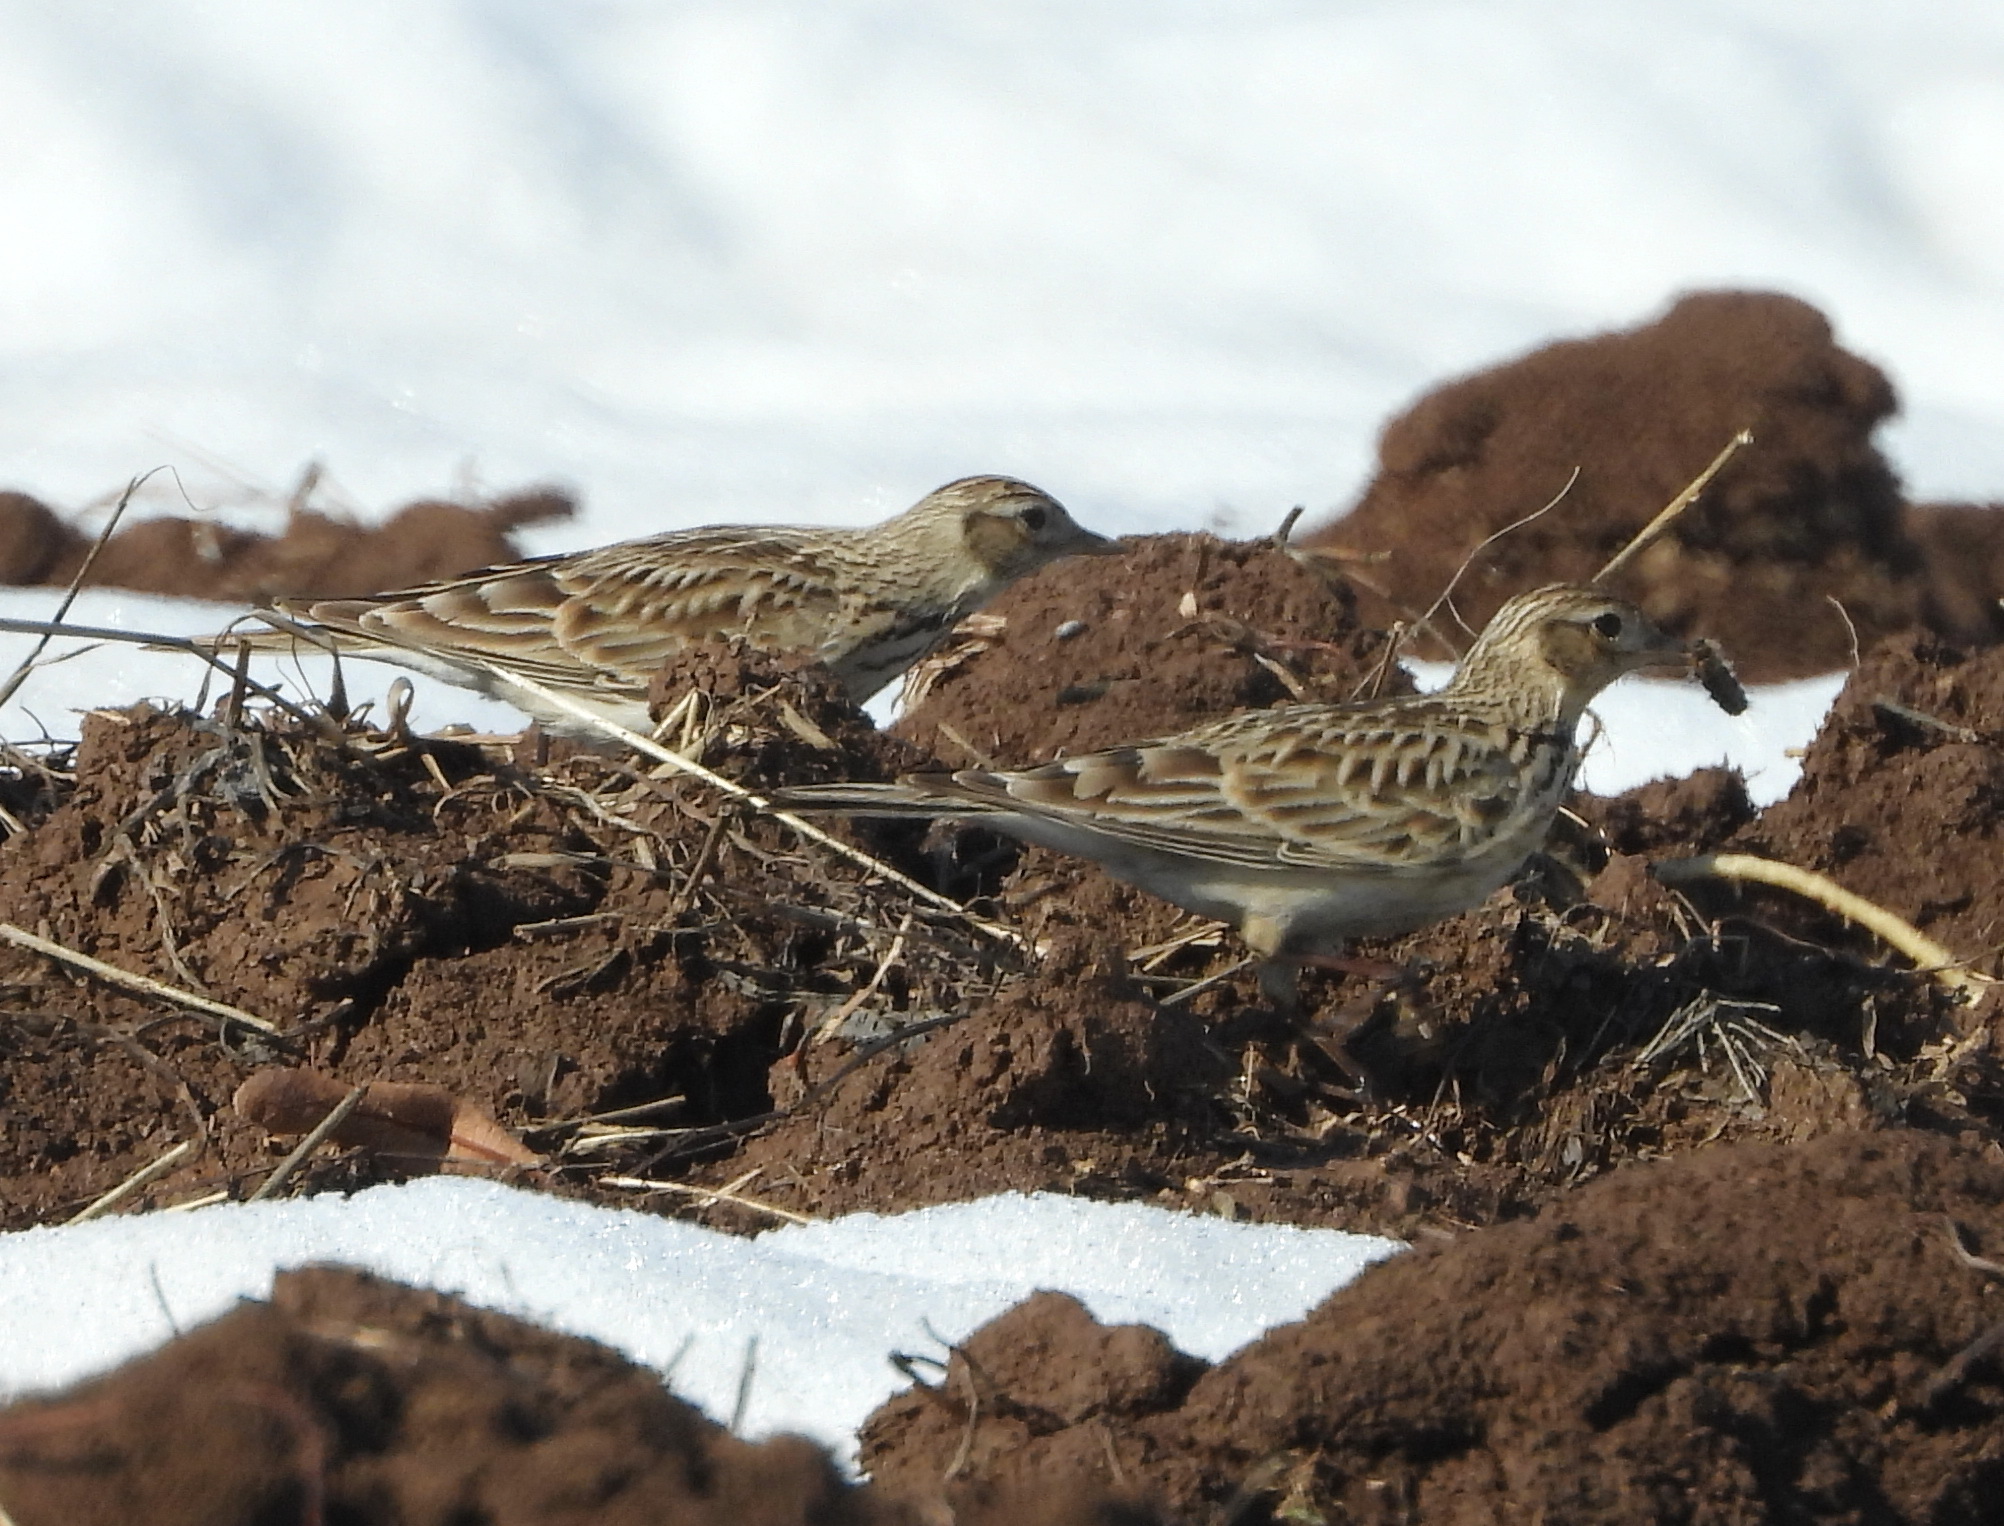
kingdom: Animalia
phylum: Chordata
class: Aves
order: Passeriformes
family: Alaudidae
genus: Alauda
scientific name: Alauda arvensis
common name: Eurasian skylark
